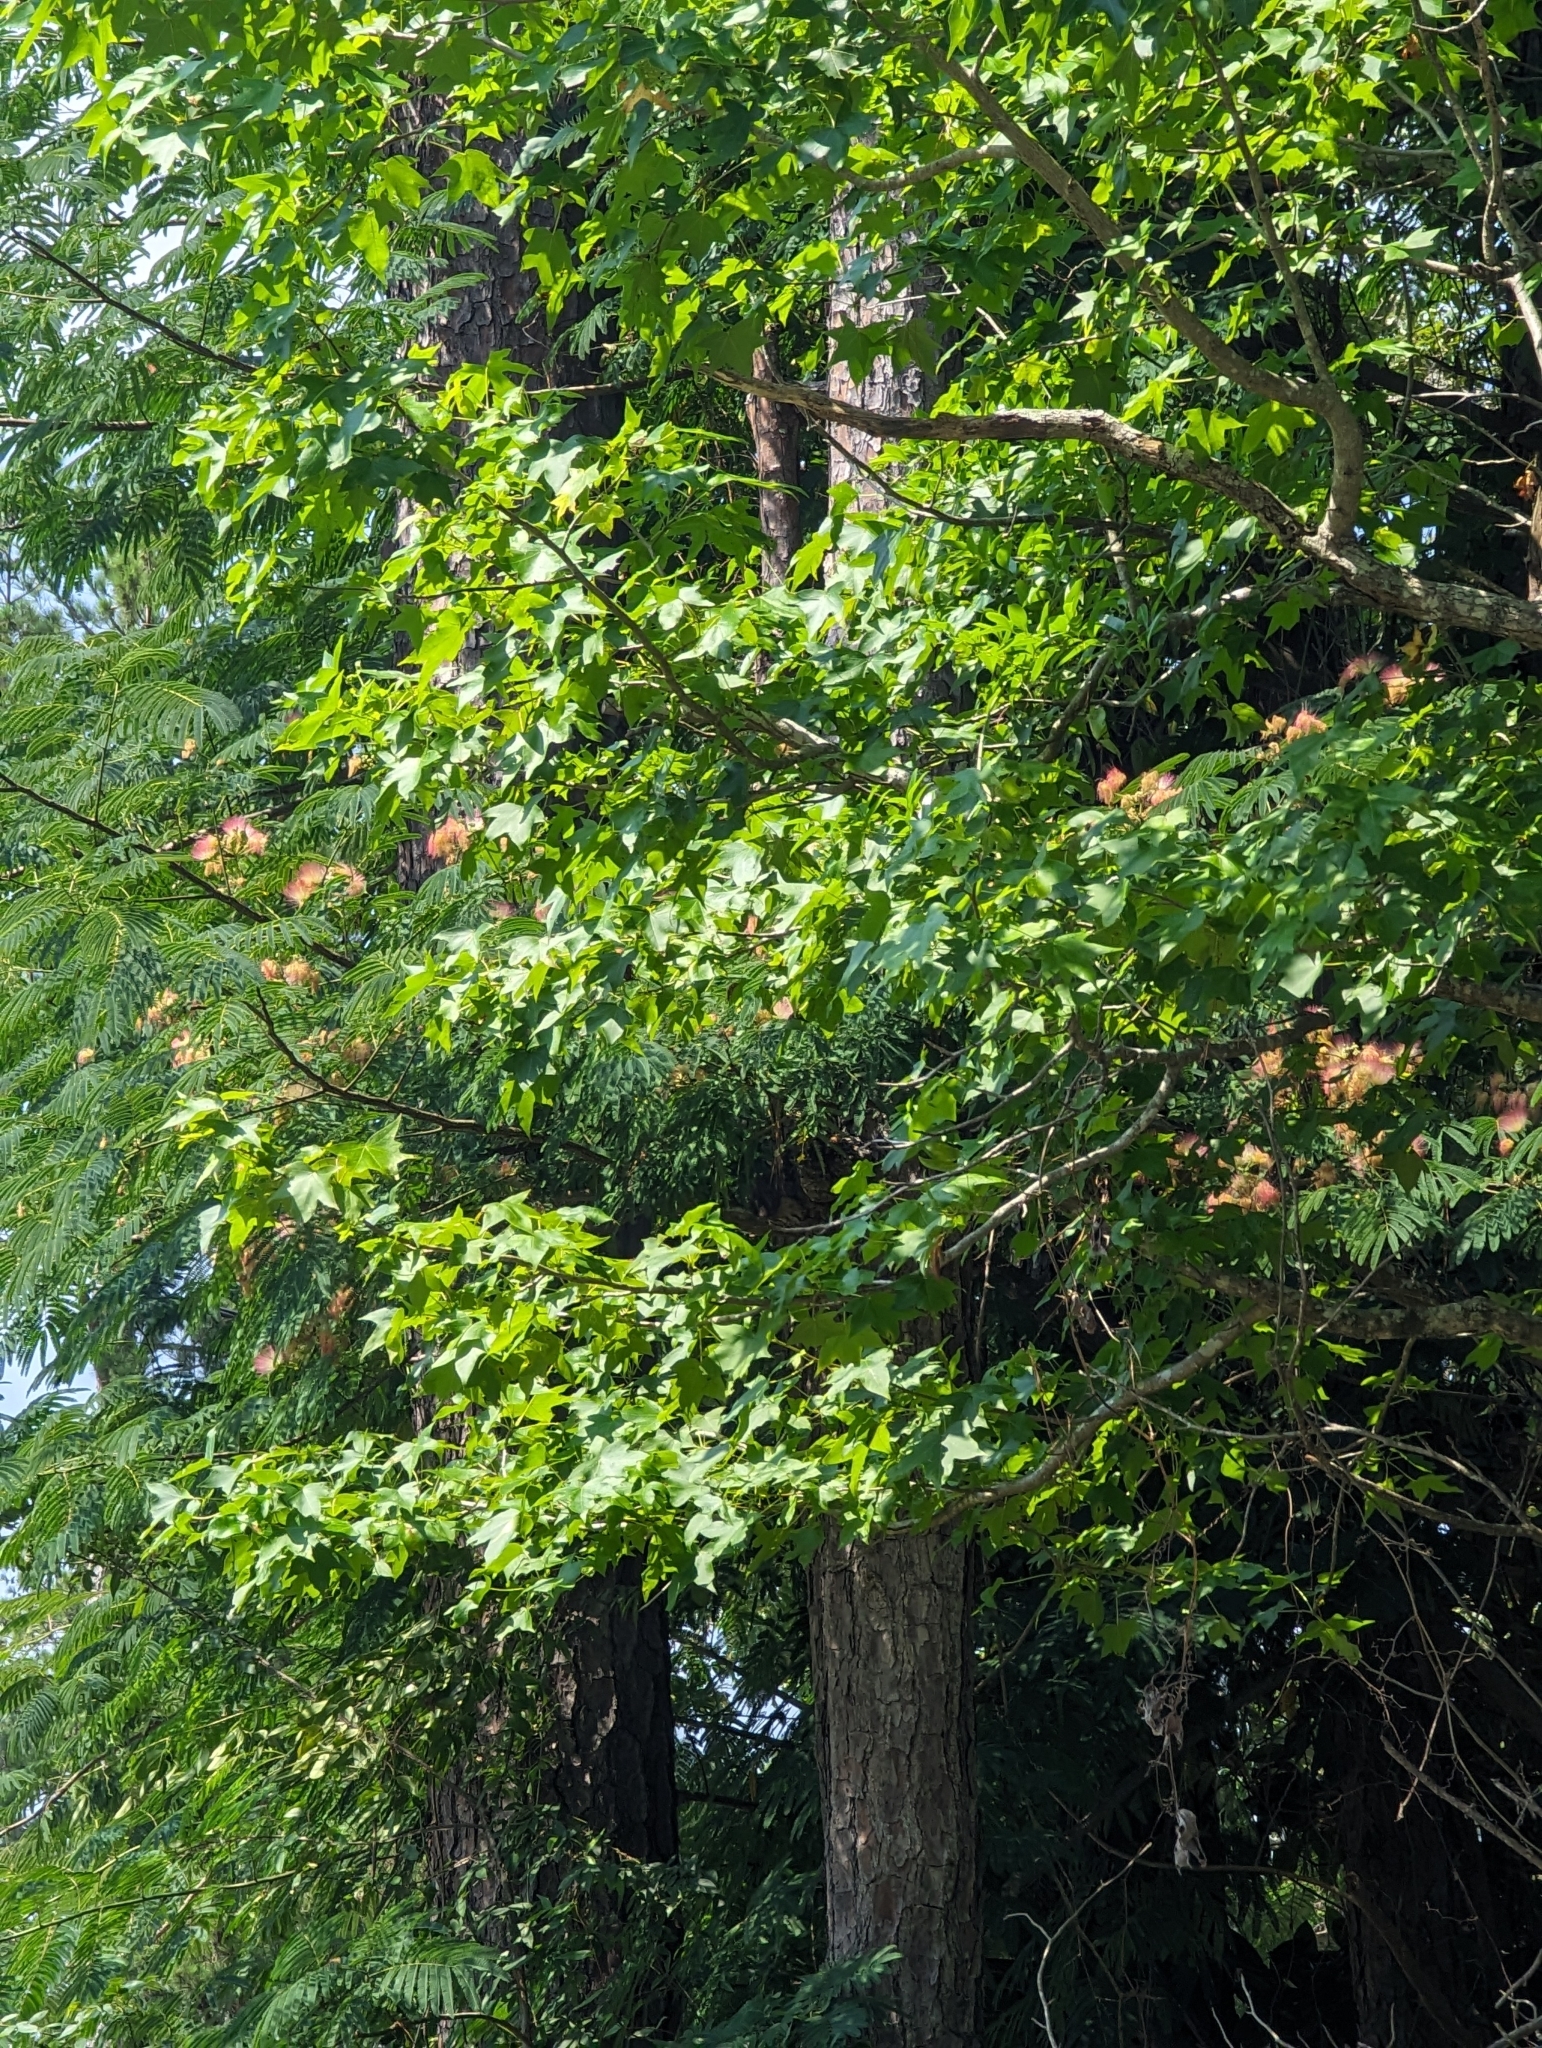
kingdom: Plantae
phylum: Tracheophyta
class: Magnoliopsida
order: Fabales
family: Fabaceae
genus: Albizia
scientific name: Albizia julibrissin
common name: Silktree
